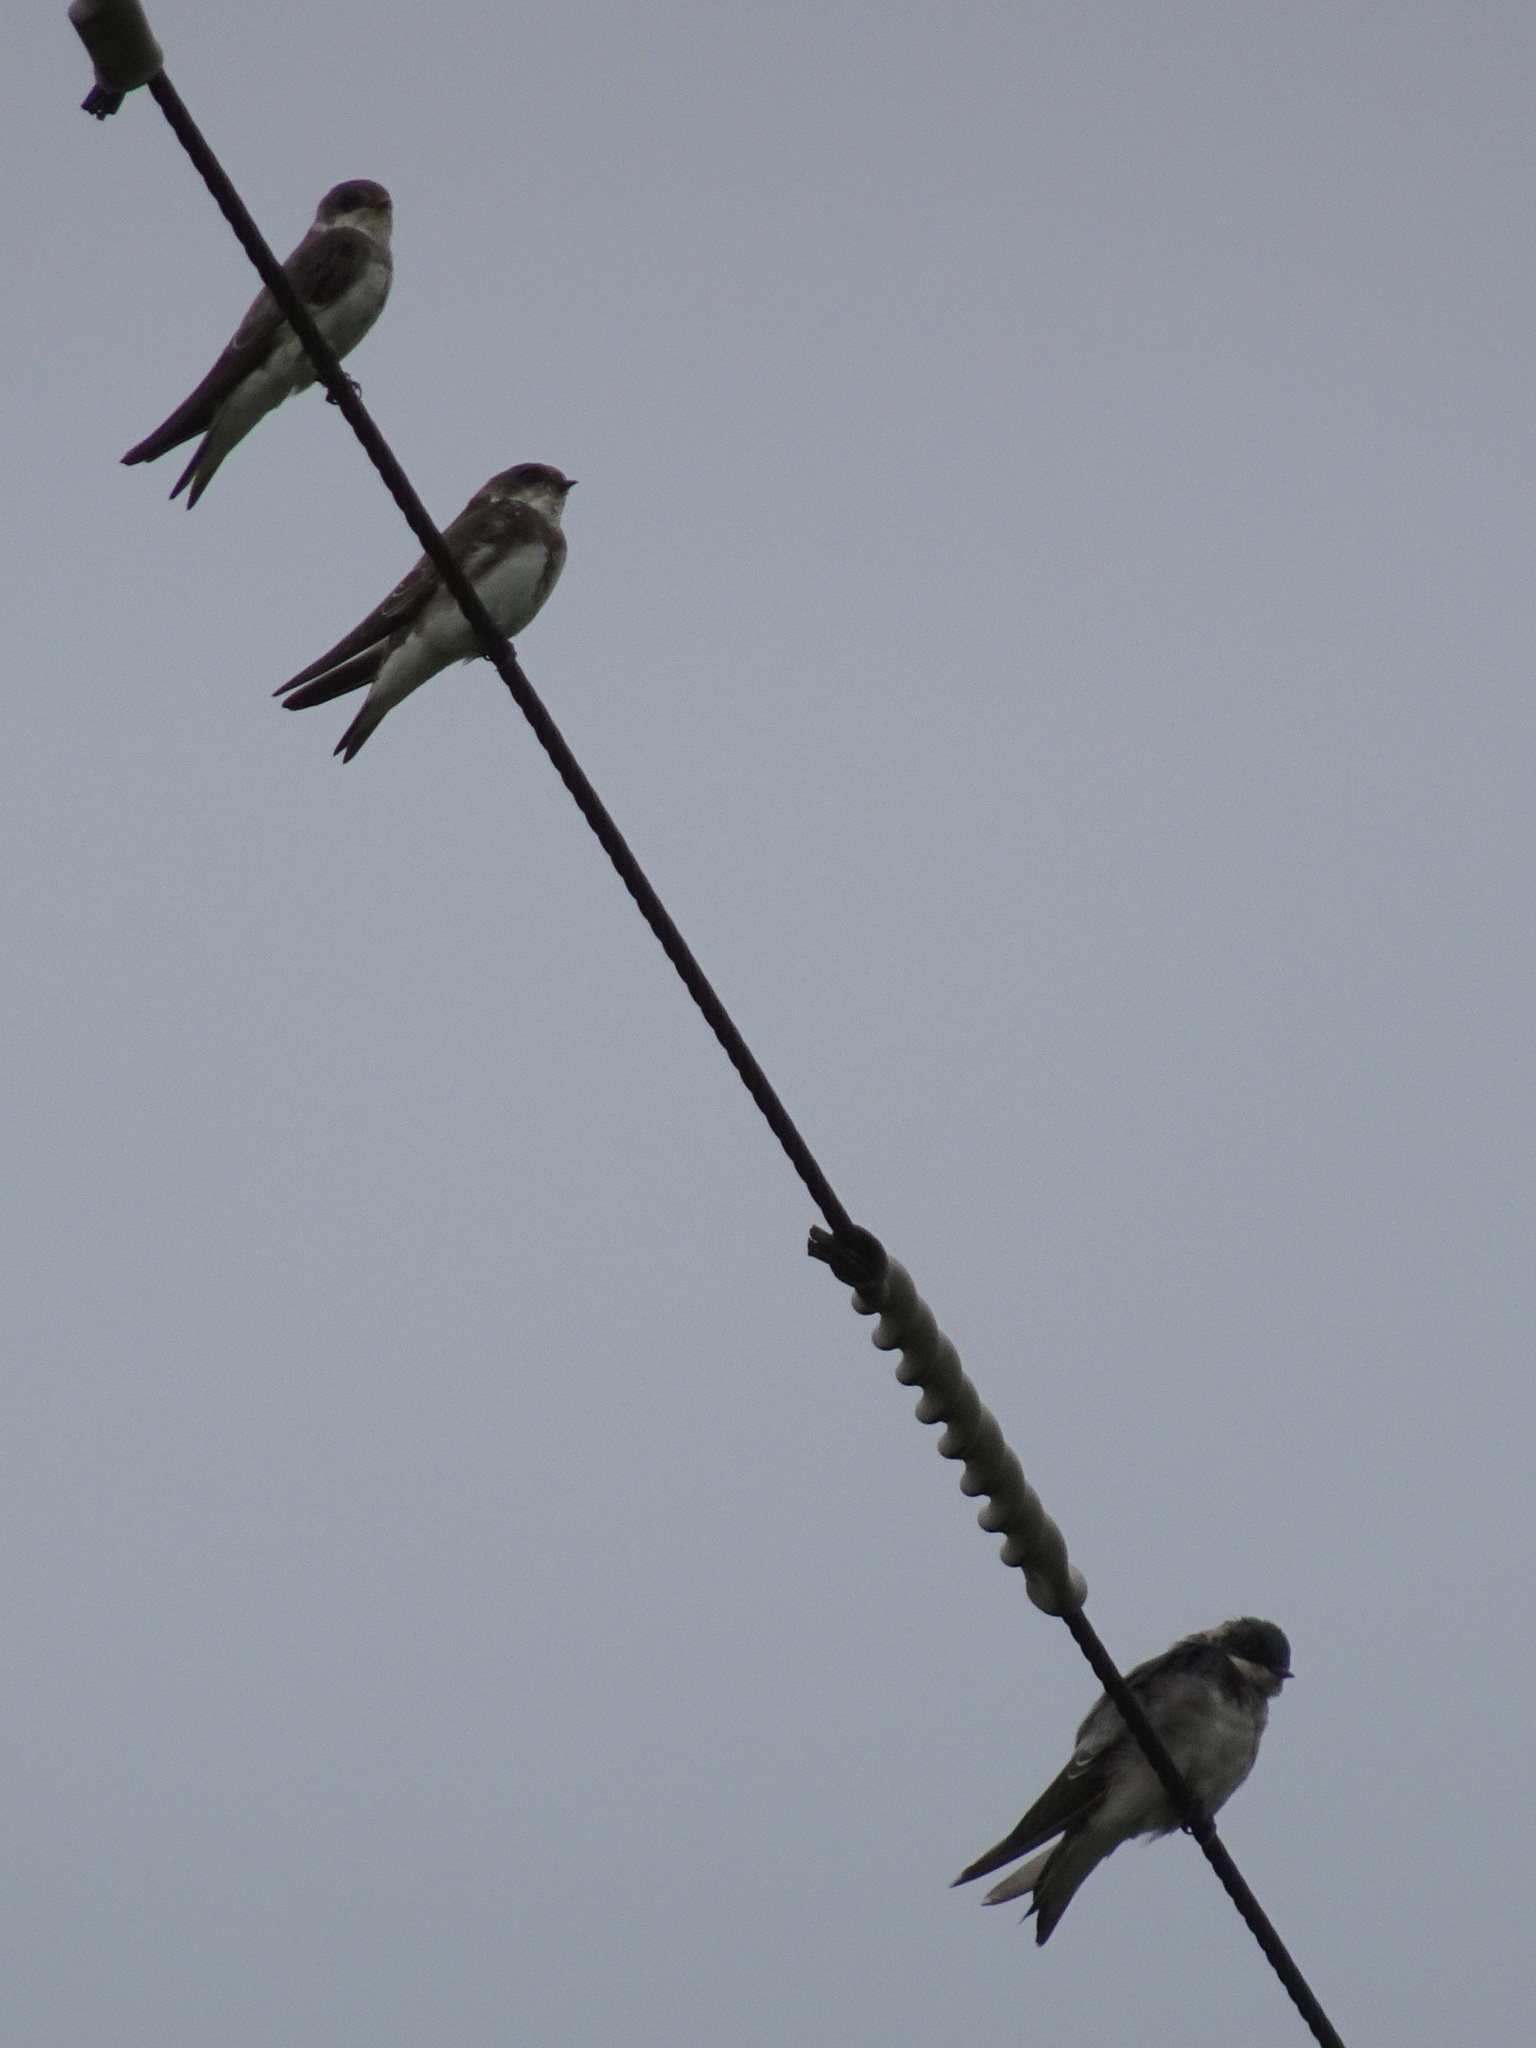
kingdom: Animalia
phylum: Chordata
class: Aves
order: Passeriformes
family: Hirundinidae
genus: Riparia
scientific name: Riparia riparia
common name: Sand martin
